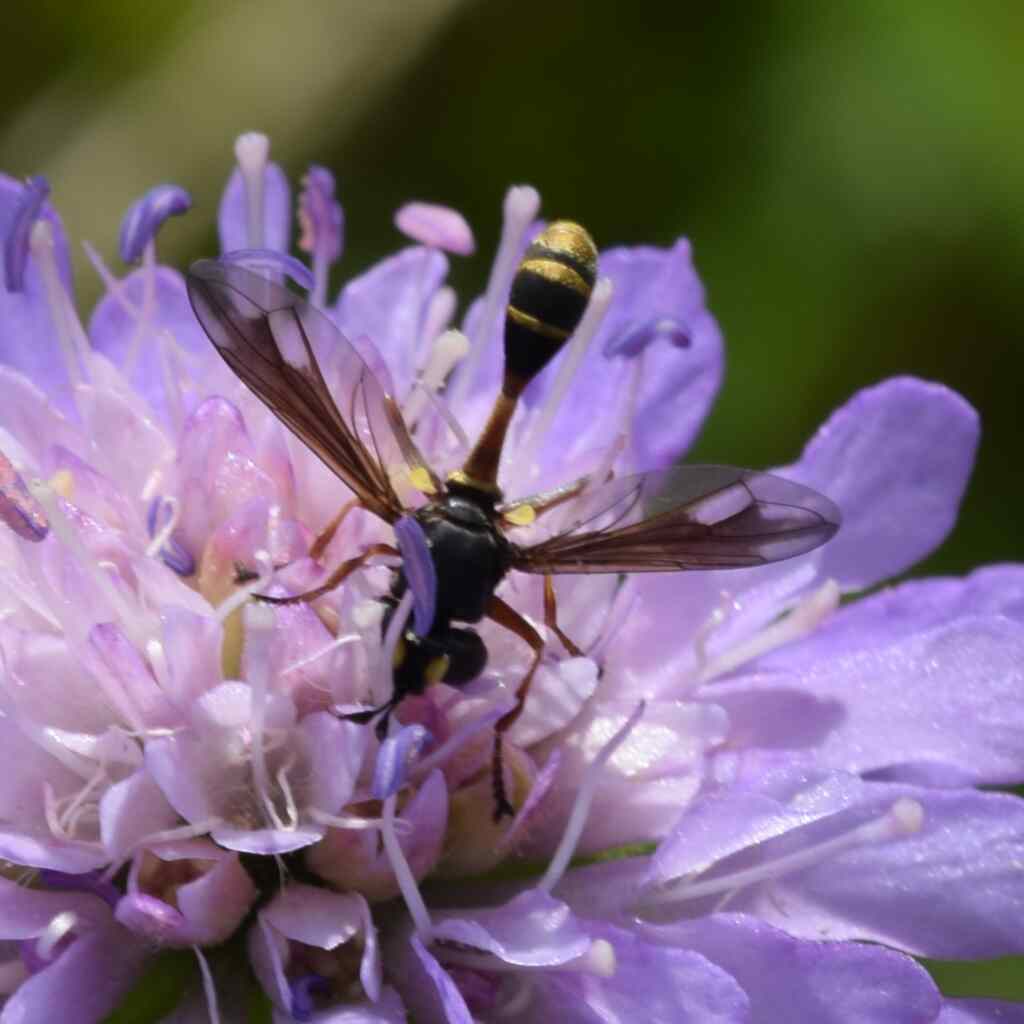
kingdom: Animalia
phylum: Arthropoda
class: Insecta
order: Diptera
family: Conopidae
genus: Physocephala
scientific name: Physocephala rufipes
